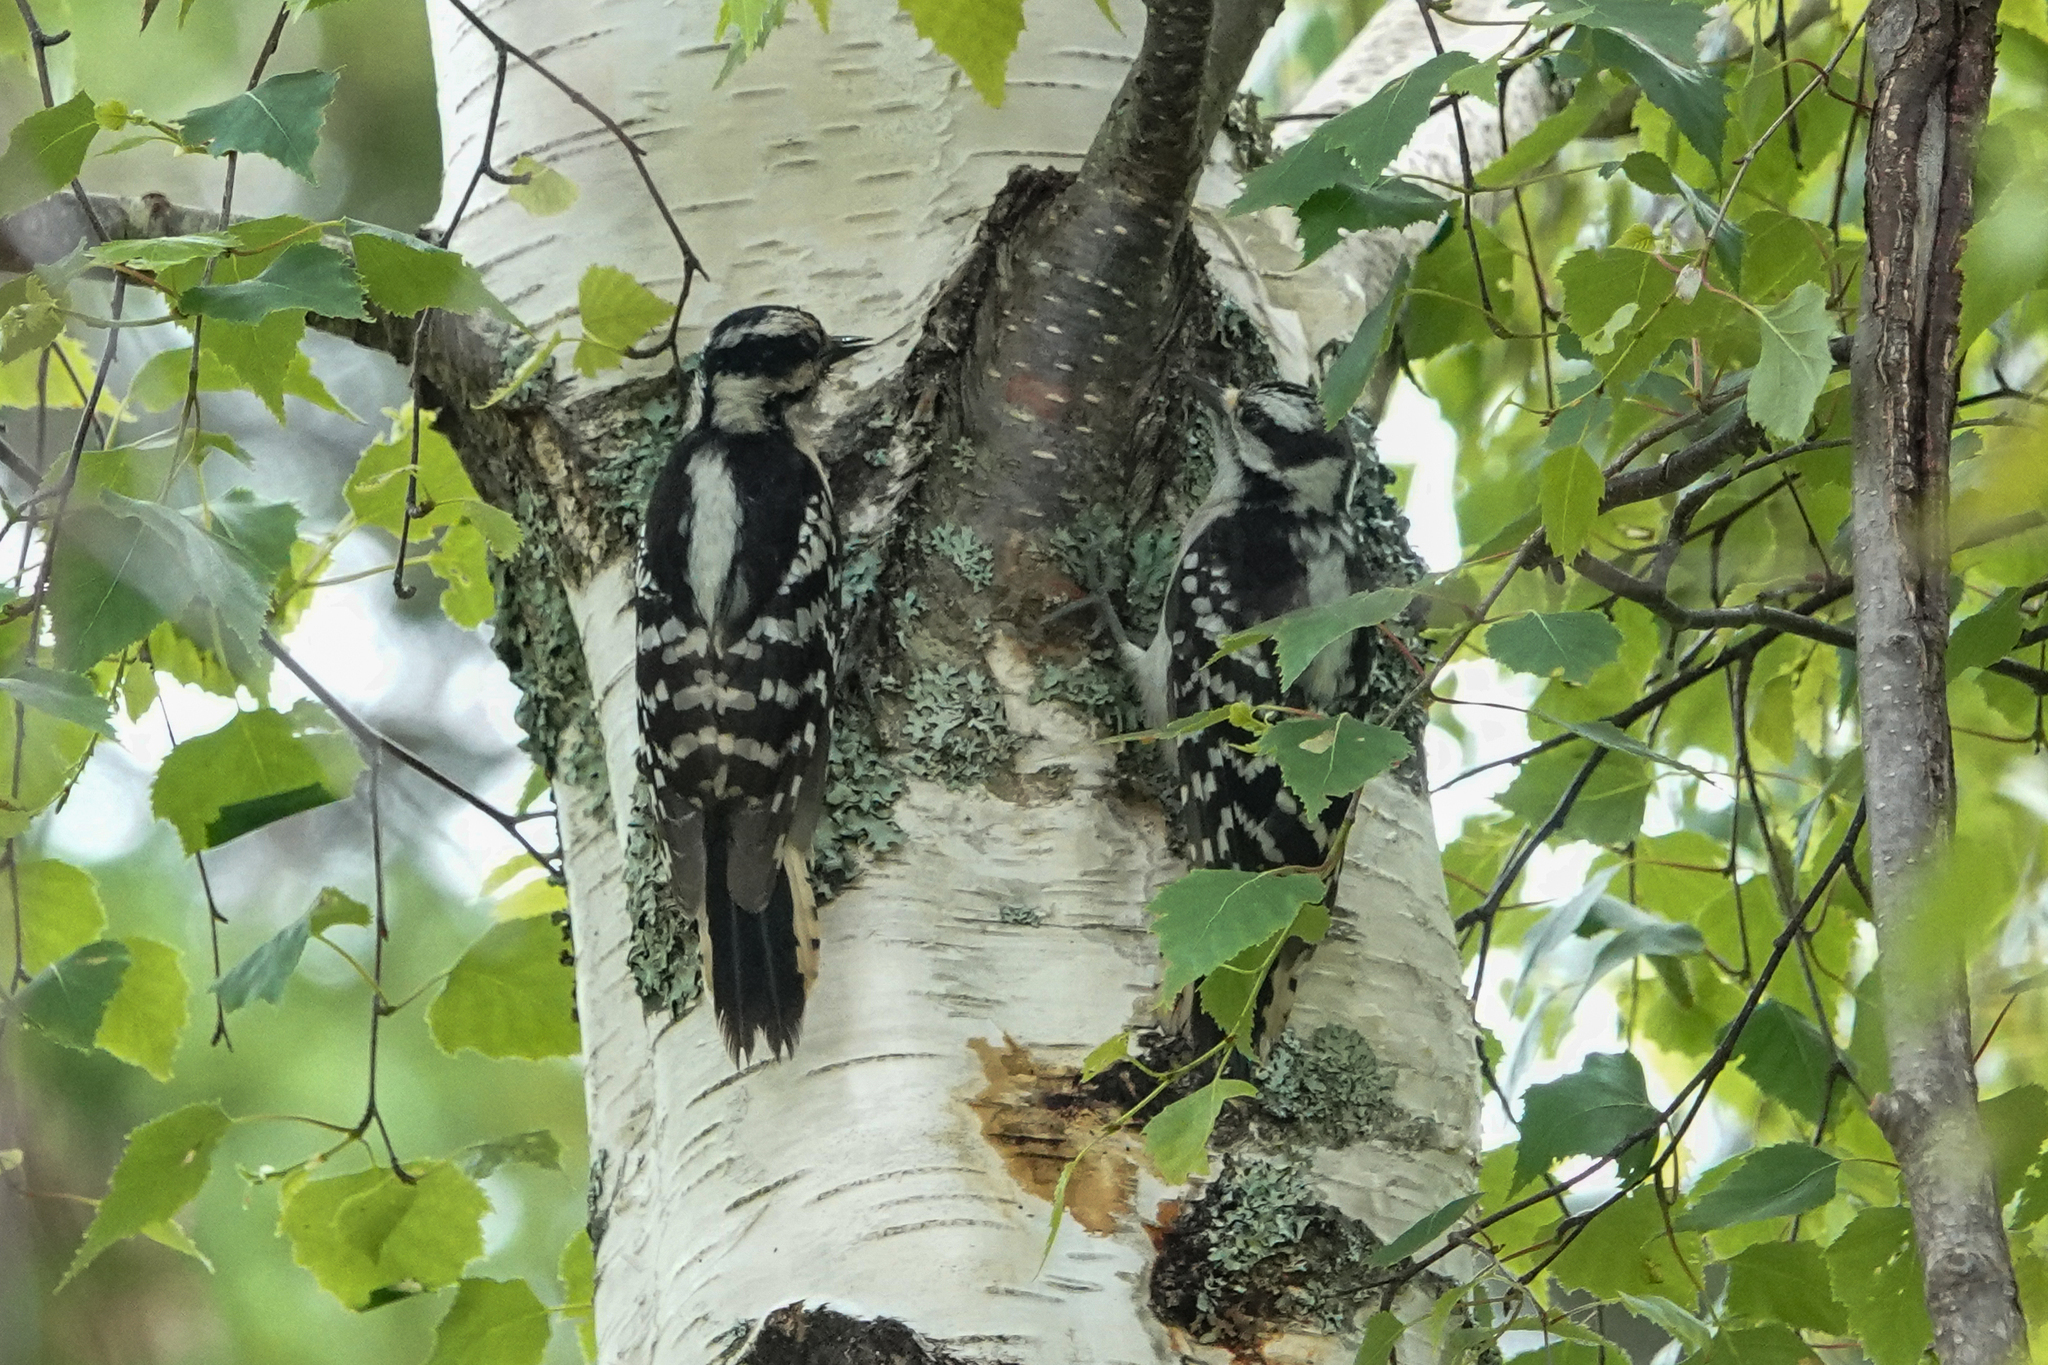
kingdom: Animalia
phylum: Chordata
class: Aves
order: Piciformes
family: Picidae
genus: Dryobates
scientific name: Dryobates pubescens
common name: Downy woodpecker
